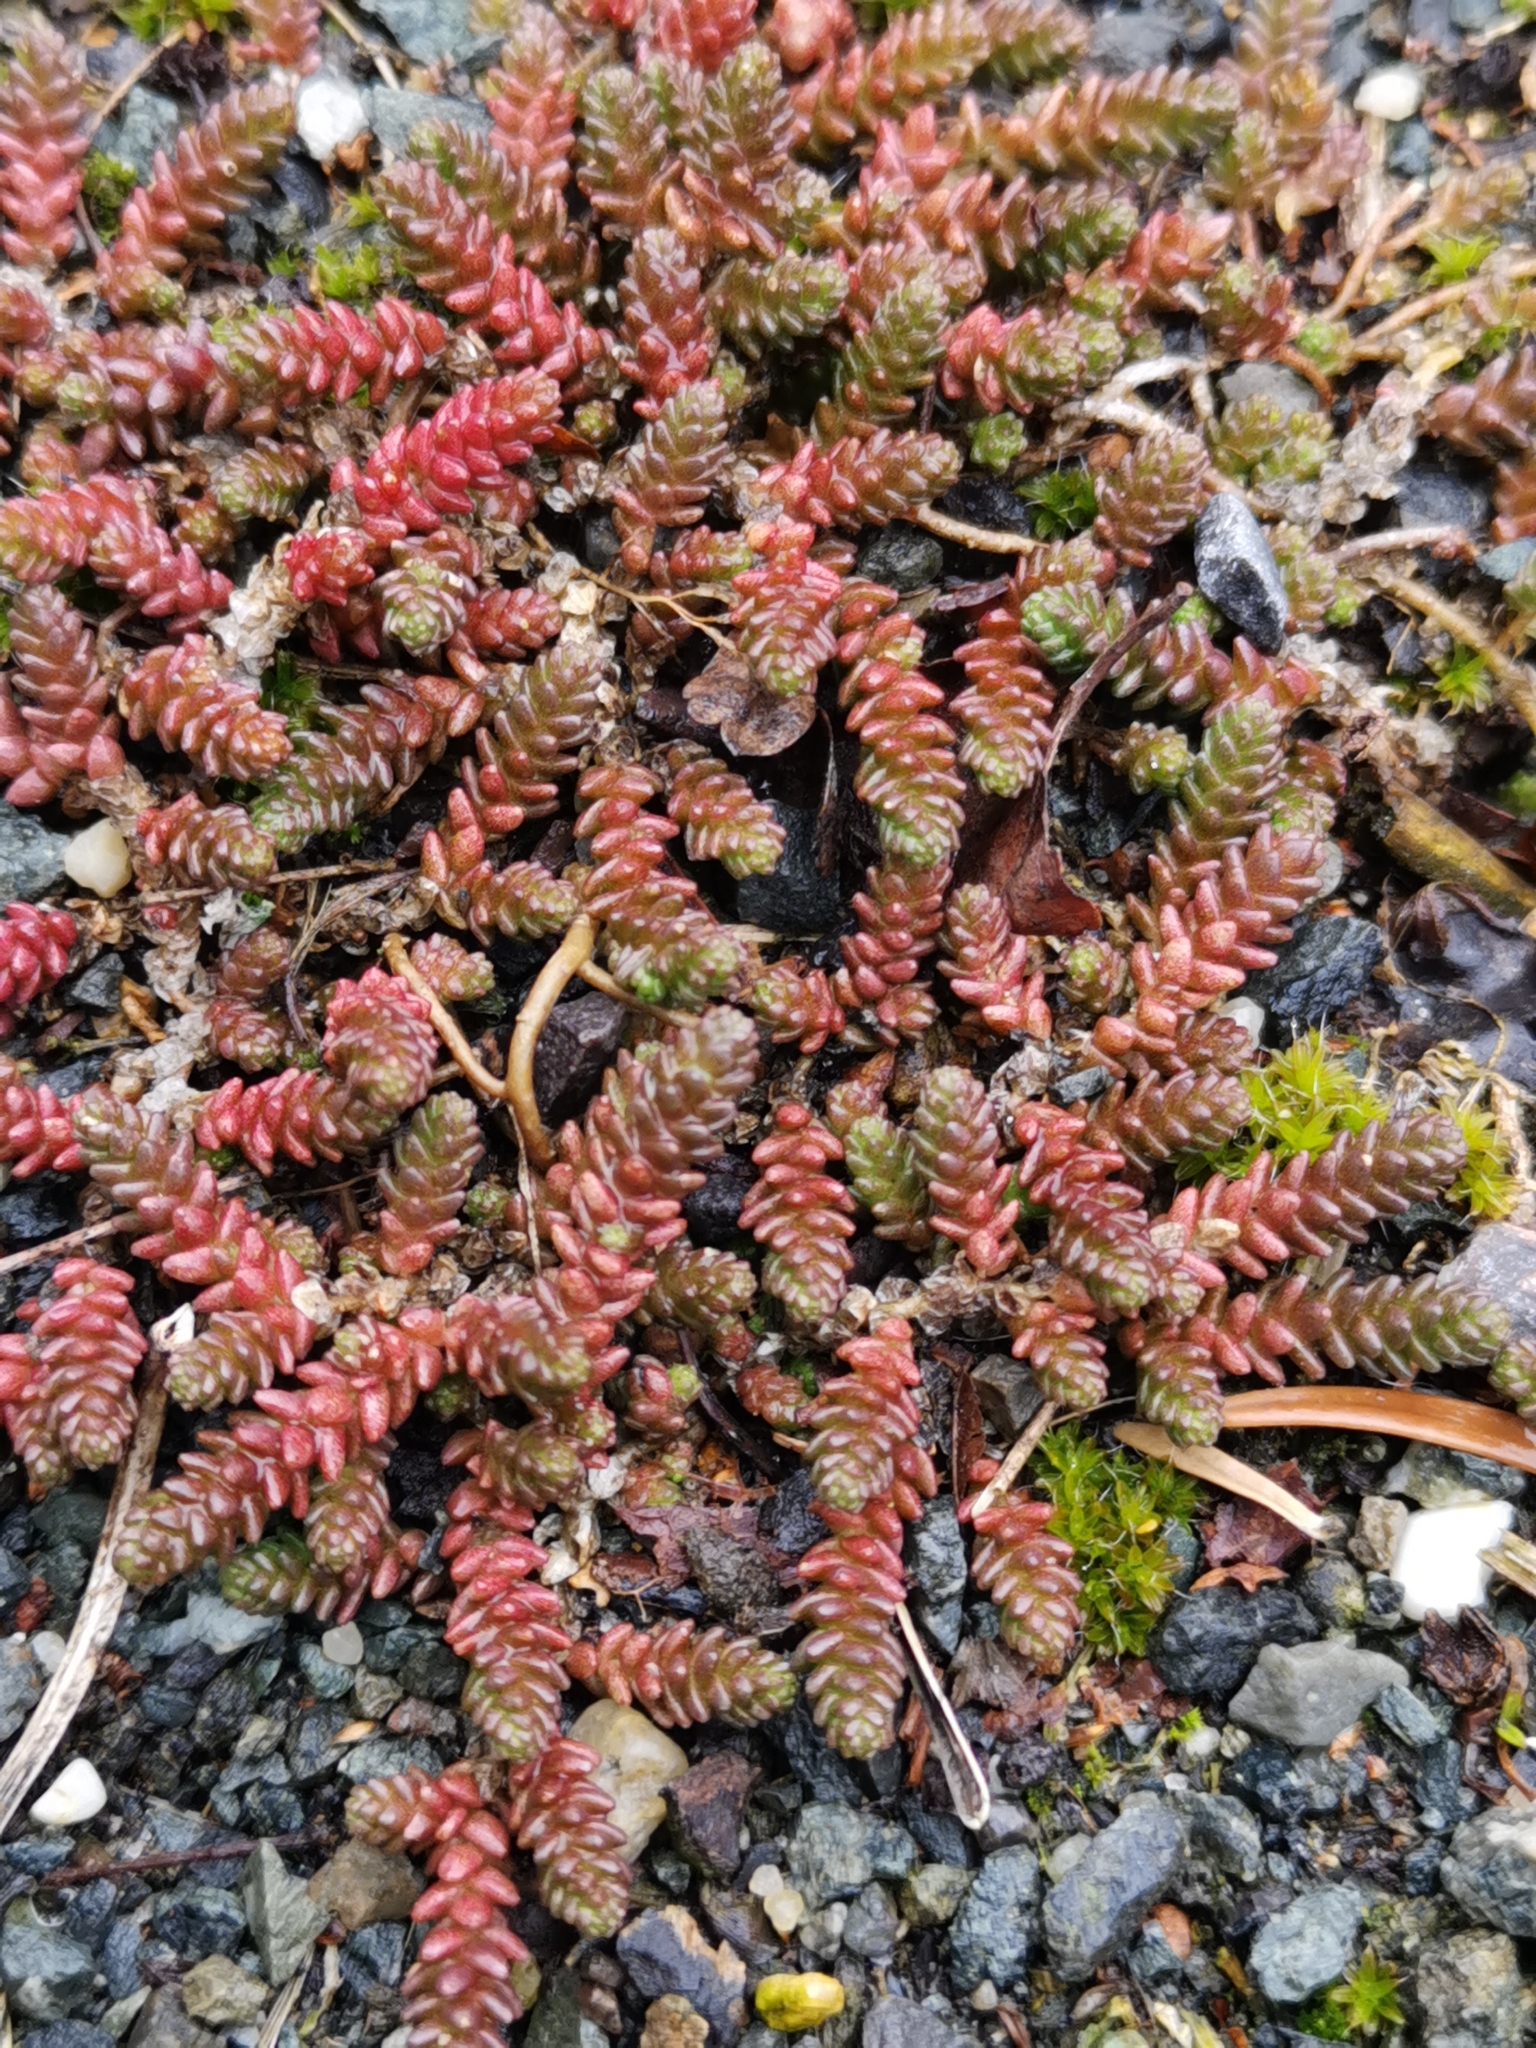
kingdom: Plantae
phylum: Tracheophyta
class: Magnoliopsida
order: Saxifragales
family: Crassulaceae
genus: Sedum
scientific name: Sedum acre
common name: Biting stonecrop
